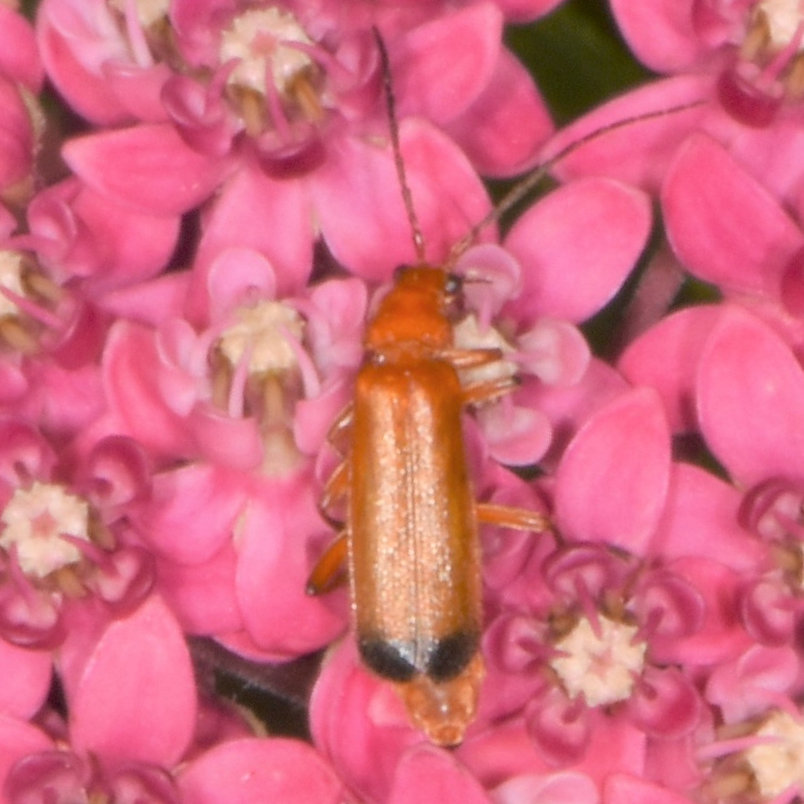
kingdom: Animalia
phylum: Arthropoda
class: Insecta
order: Coleoptera
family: Cantharidae
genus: Rhagonycha
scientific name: Rhagonycha fulva
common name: Common red soldier beetle
